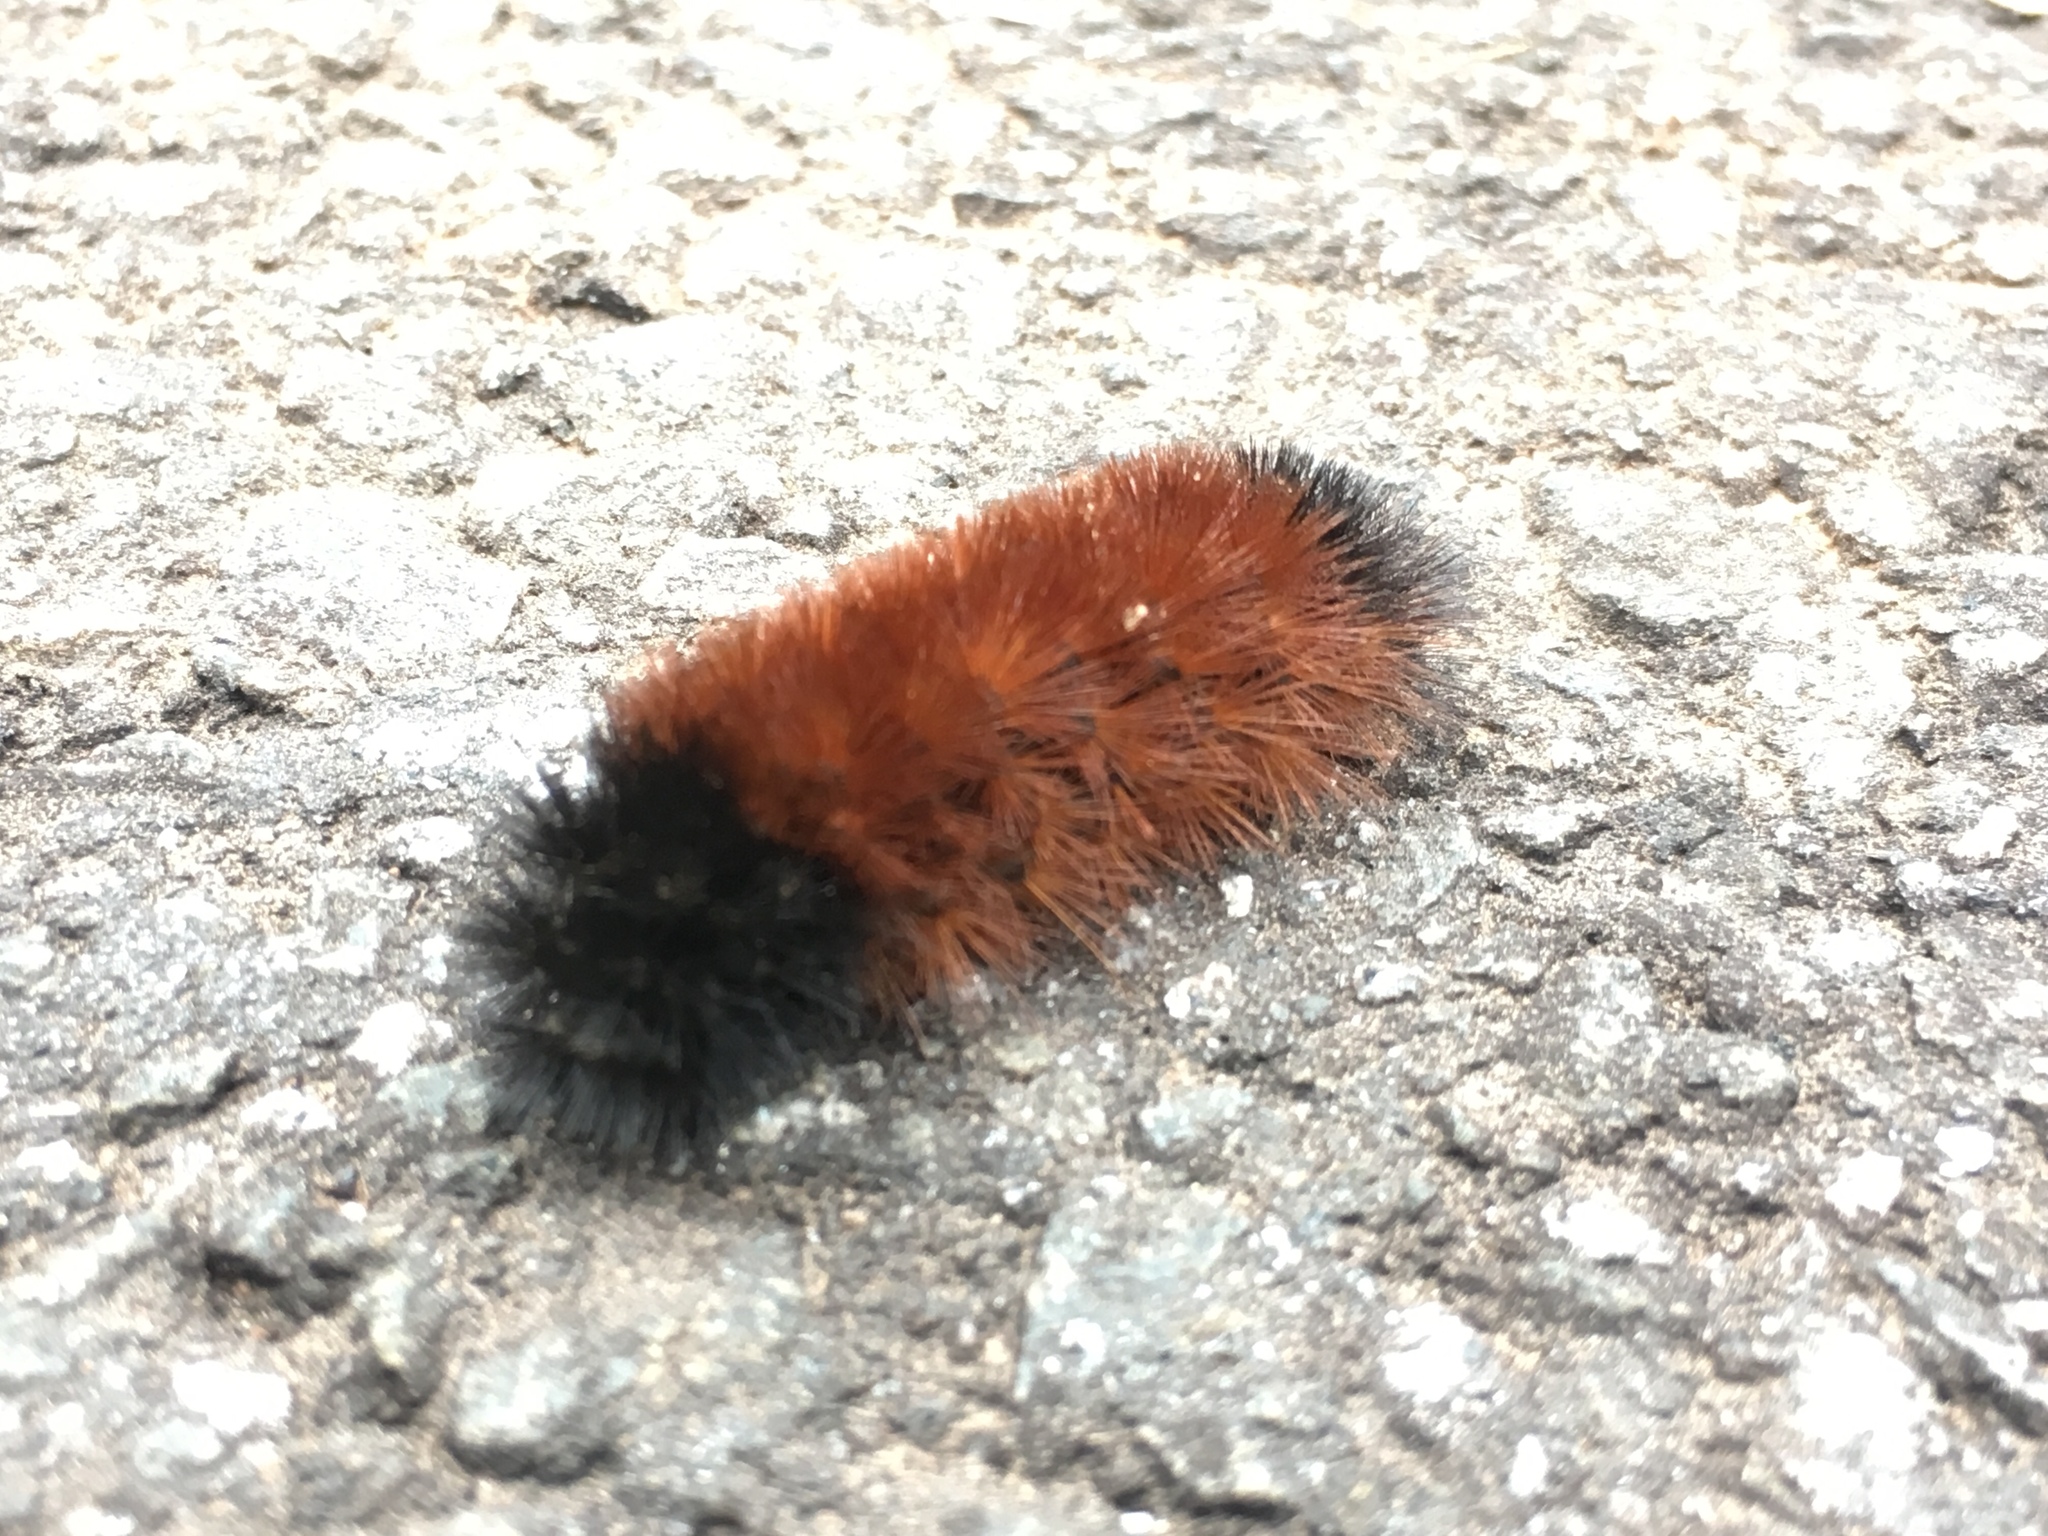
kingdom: Animalia
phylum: Arthropoda
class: Insecta
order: Lepidoptera
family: Erebidae
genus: Pyrrharctia
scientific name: Pyrrharctia isabella
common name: Isabella tiger moth
